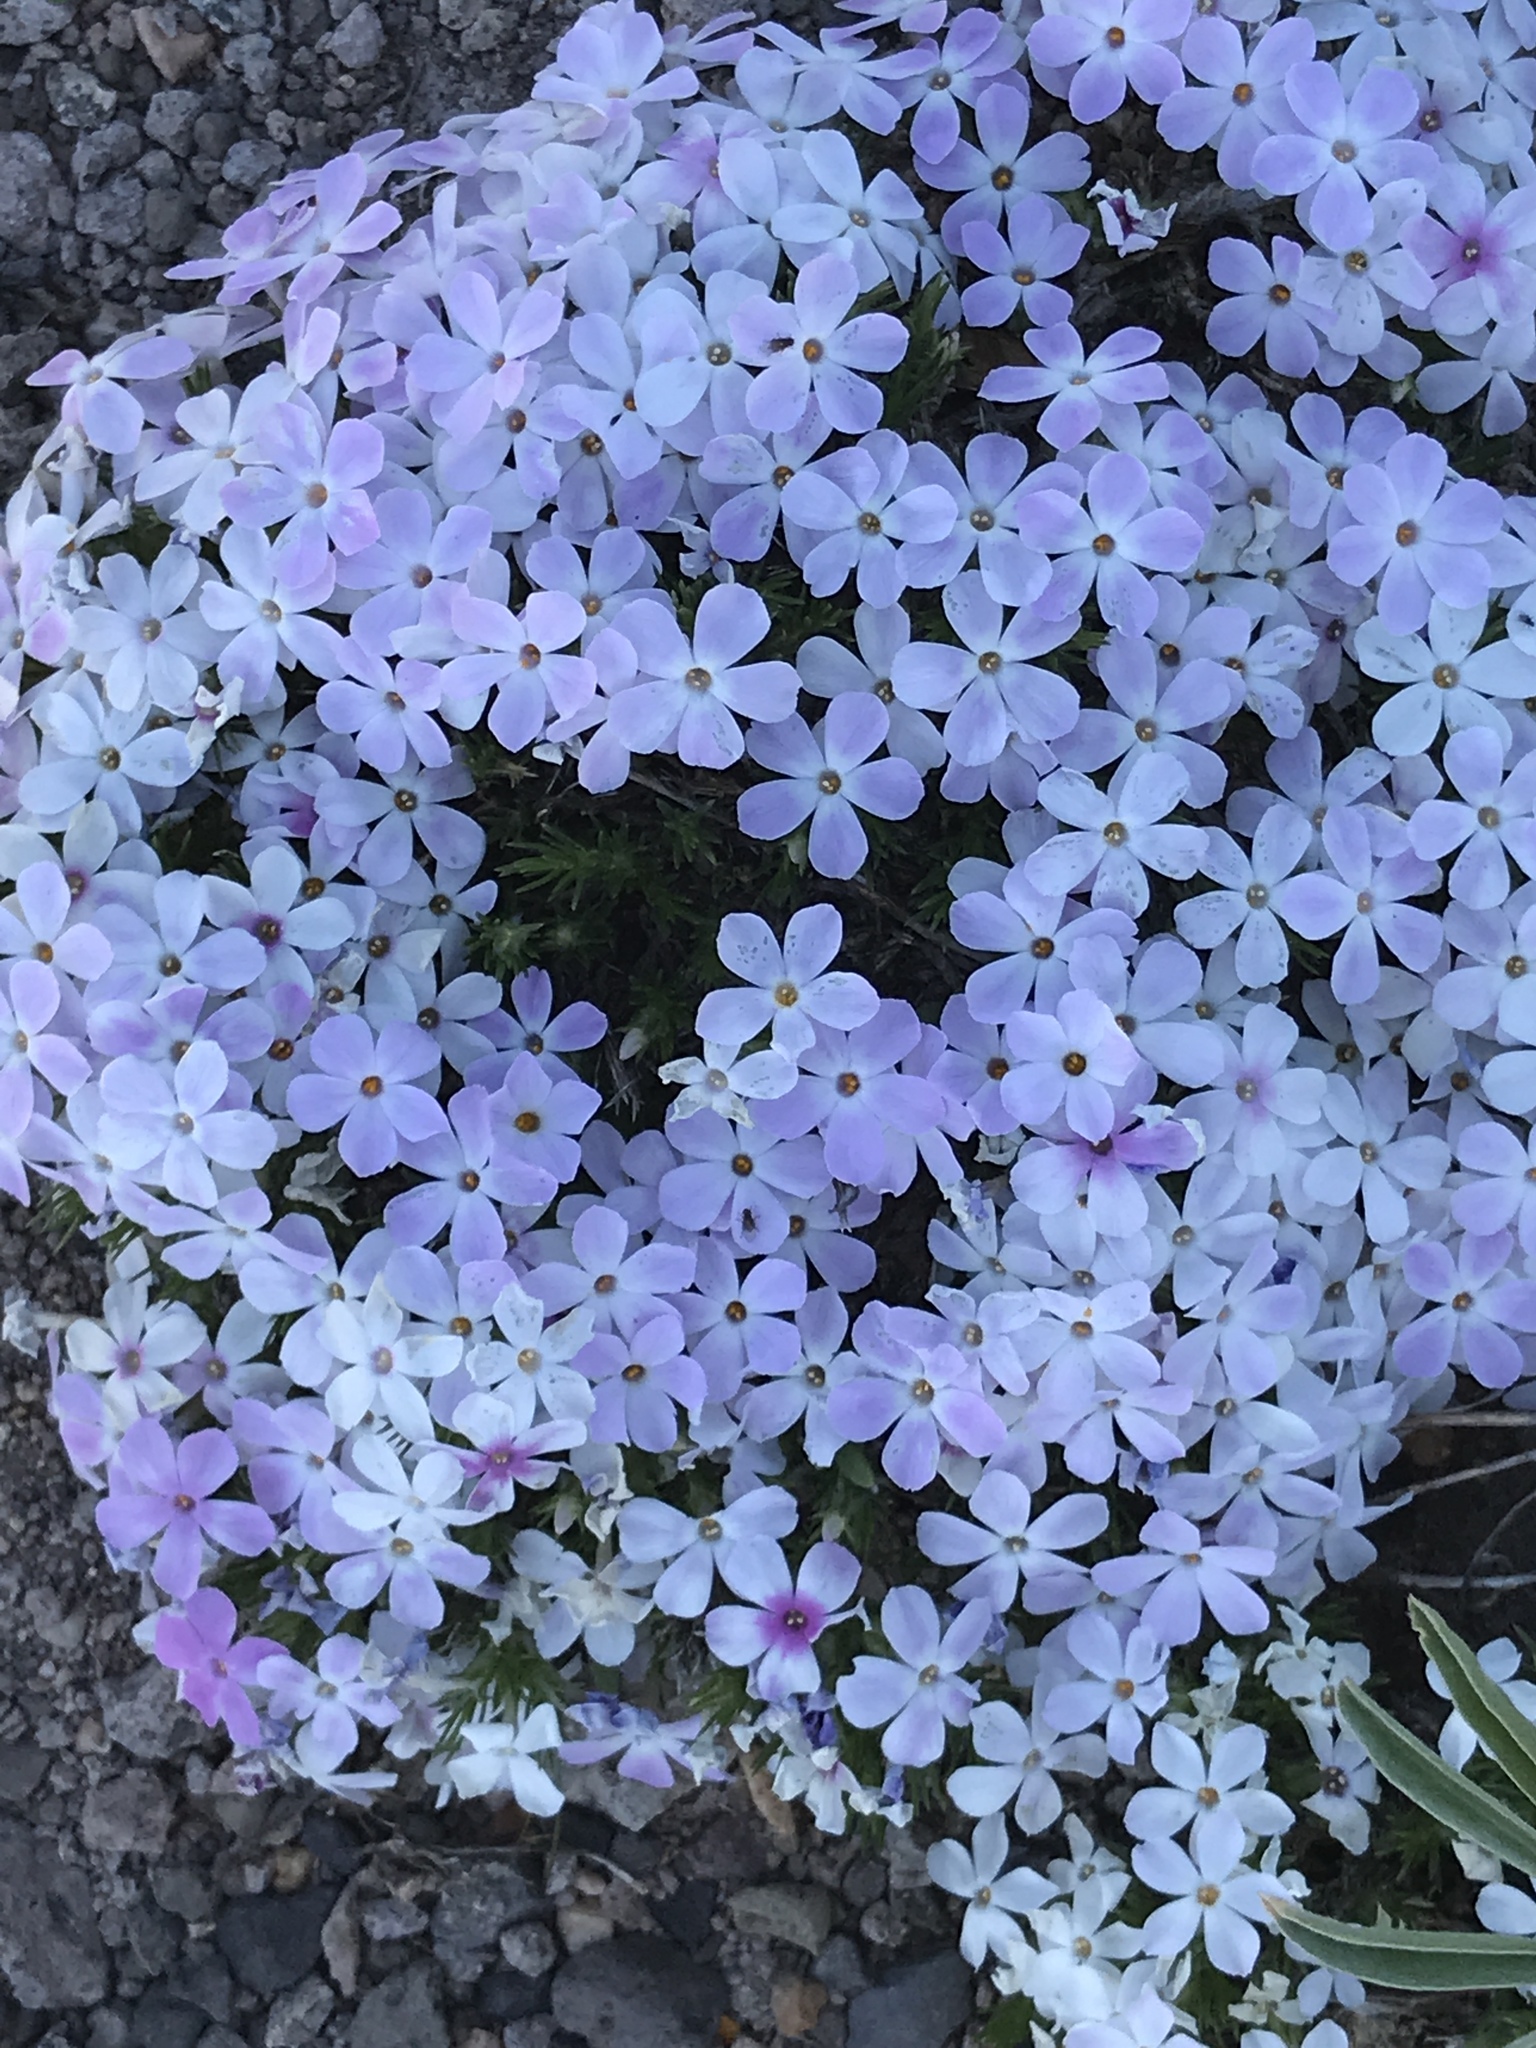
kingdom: Plantae
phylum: Tracheophyta
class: Magnoliopsida
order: Ericales
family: Polemoniaceae
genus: Phlox
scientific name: Phlox diffusa
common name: Mat phlox
